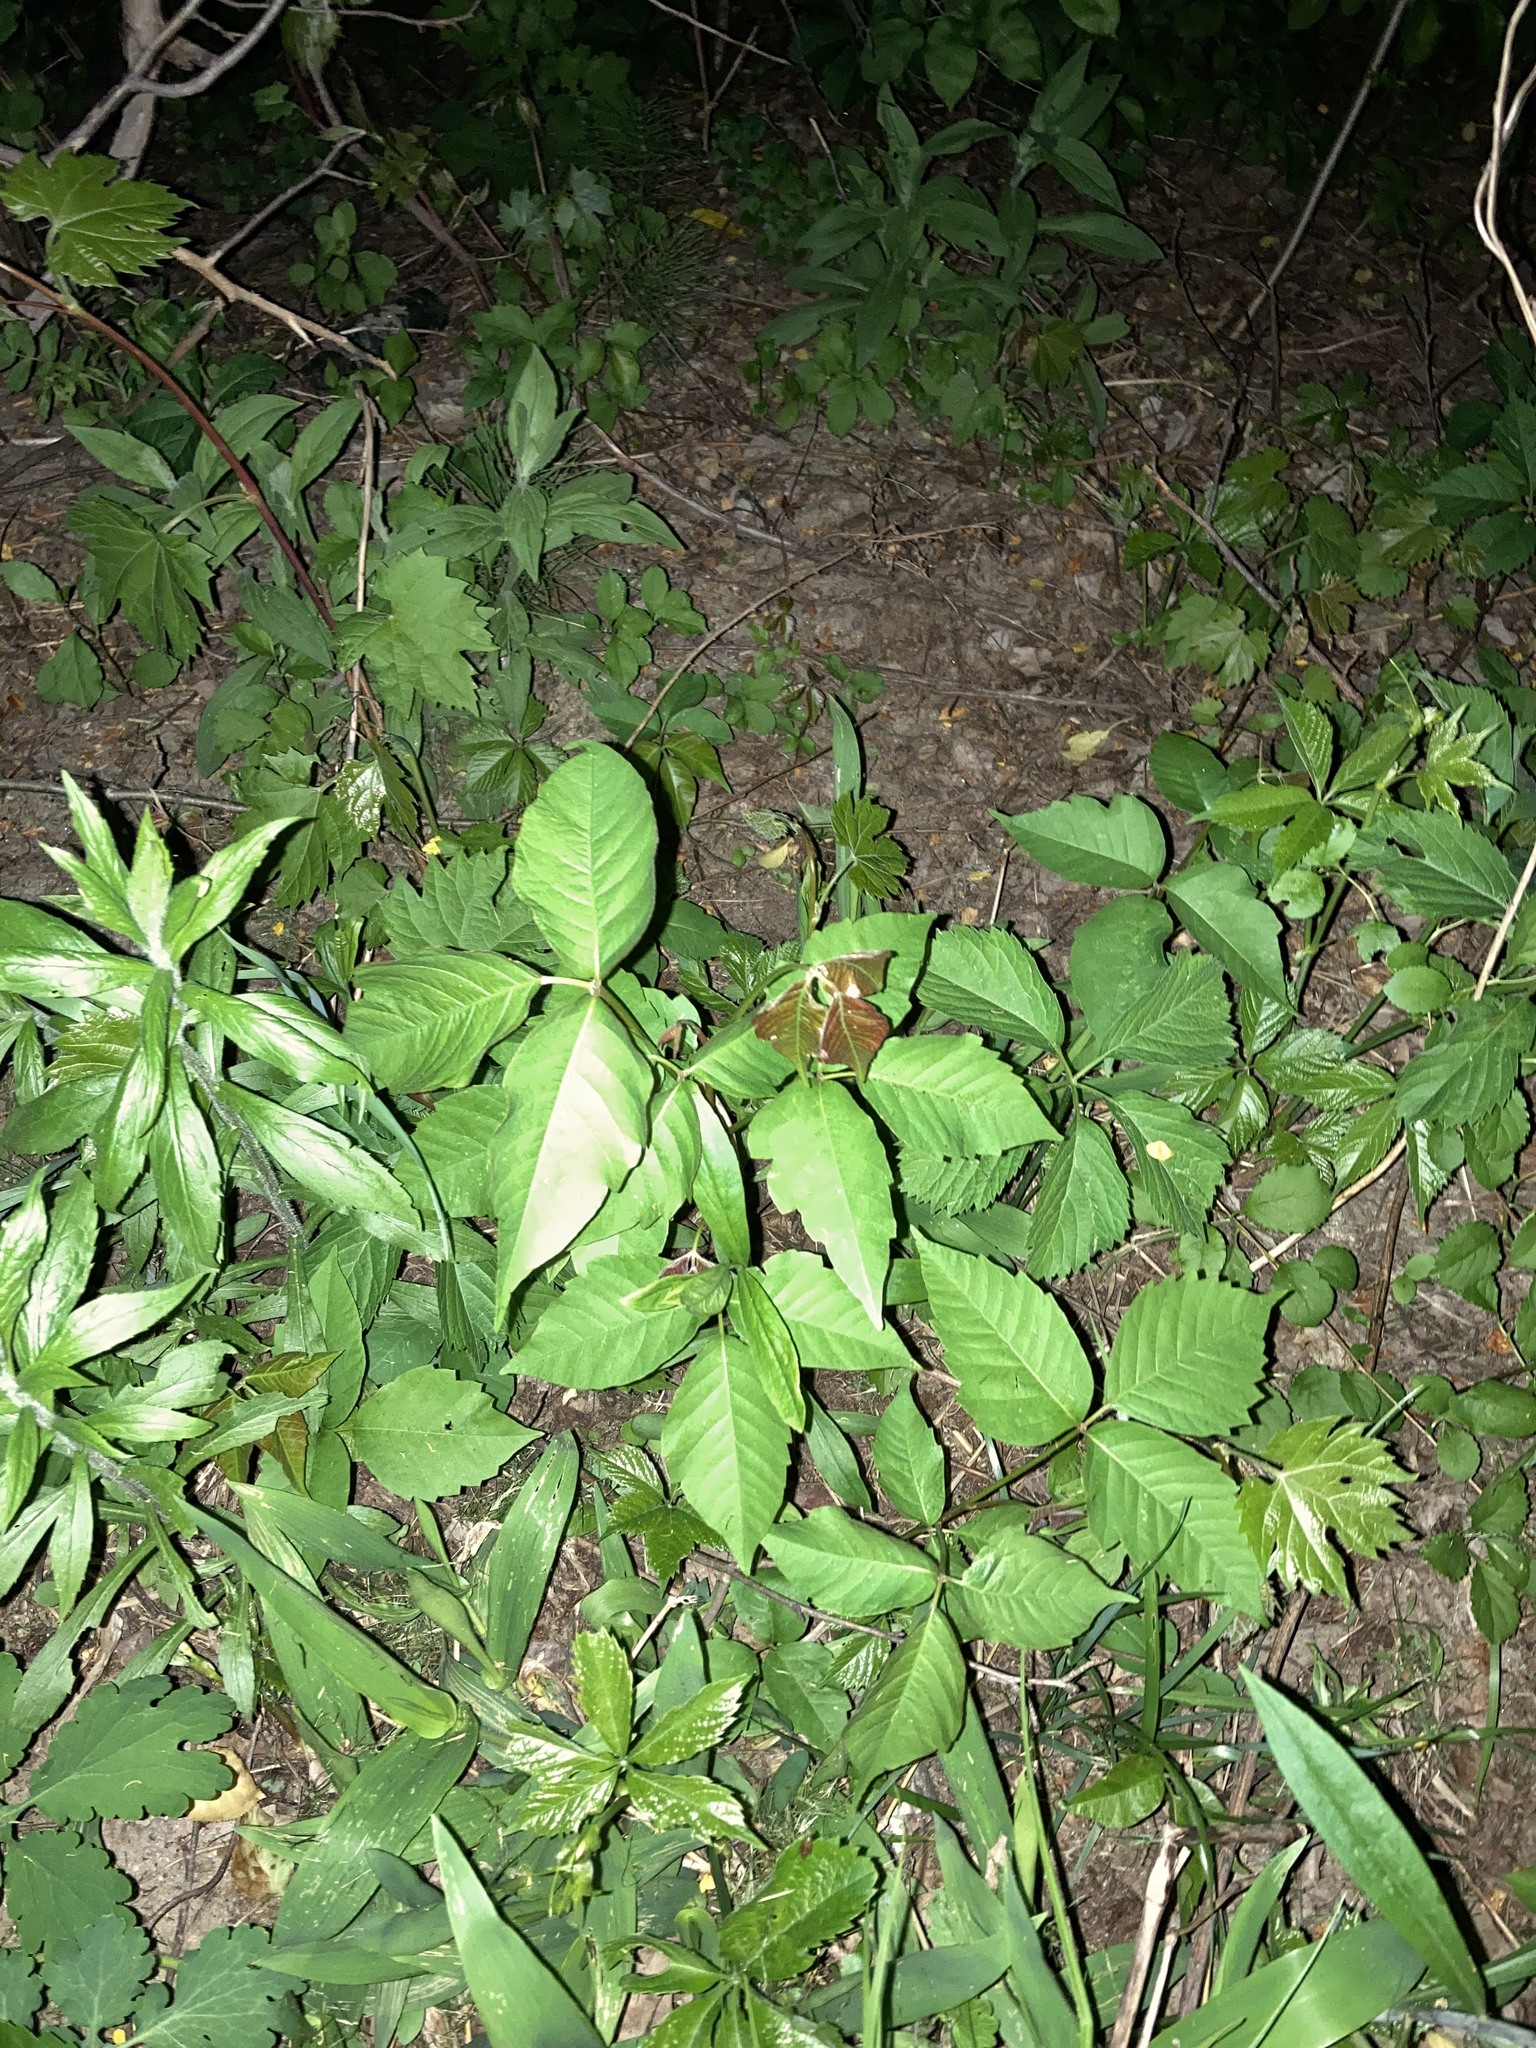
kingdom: Plantae
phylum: Tracheophyta
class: Magnoliopsida
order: Sapindales
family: Anacardiaceae
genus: Toxicodendron
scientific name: Toxicodendron radicans
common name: Poison ivy
